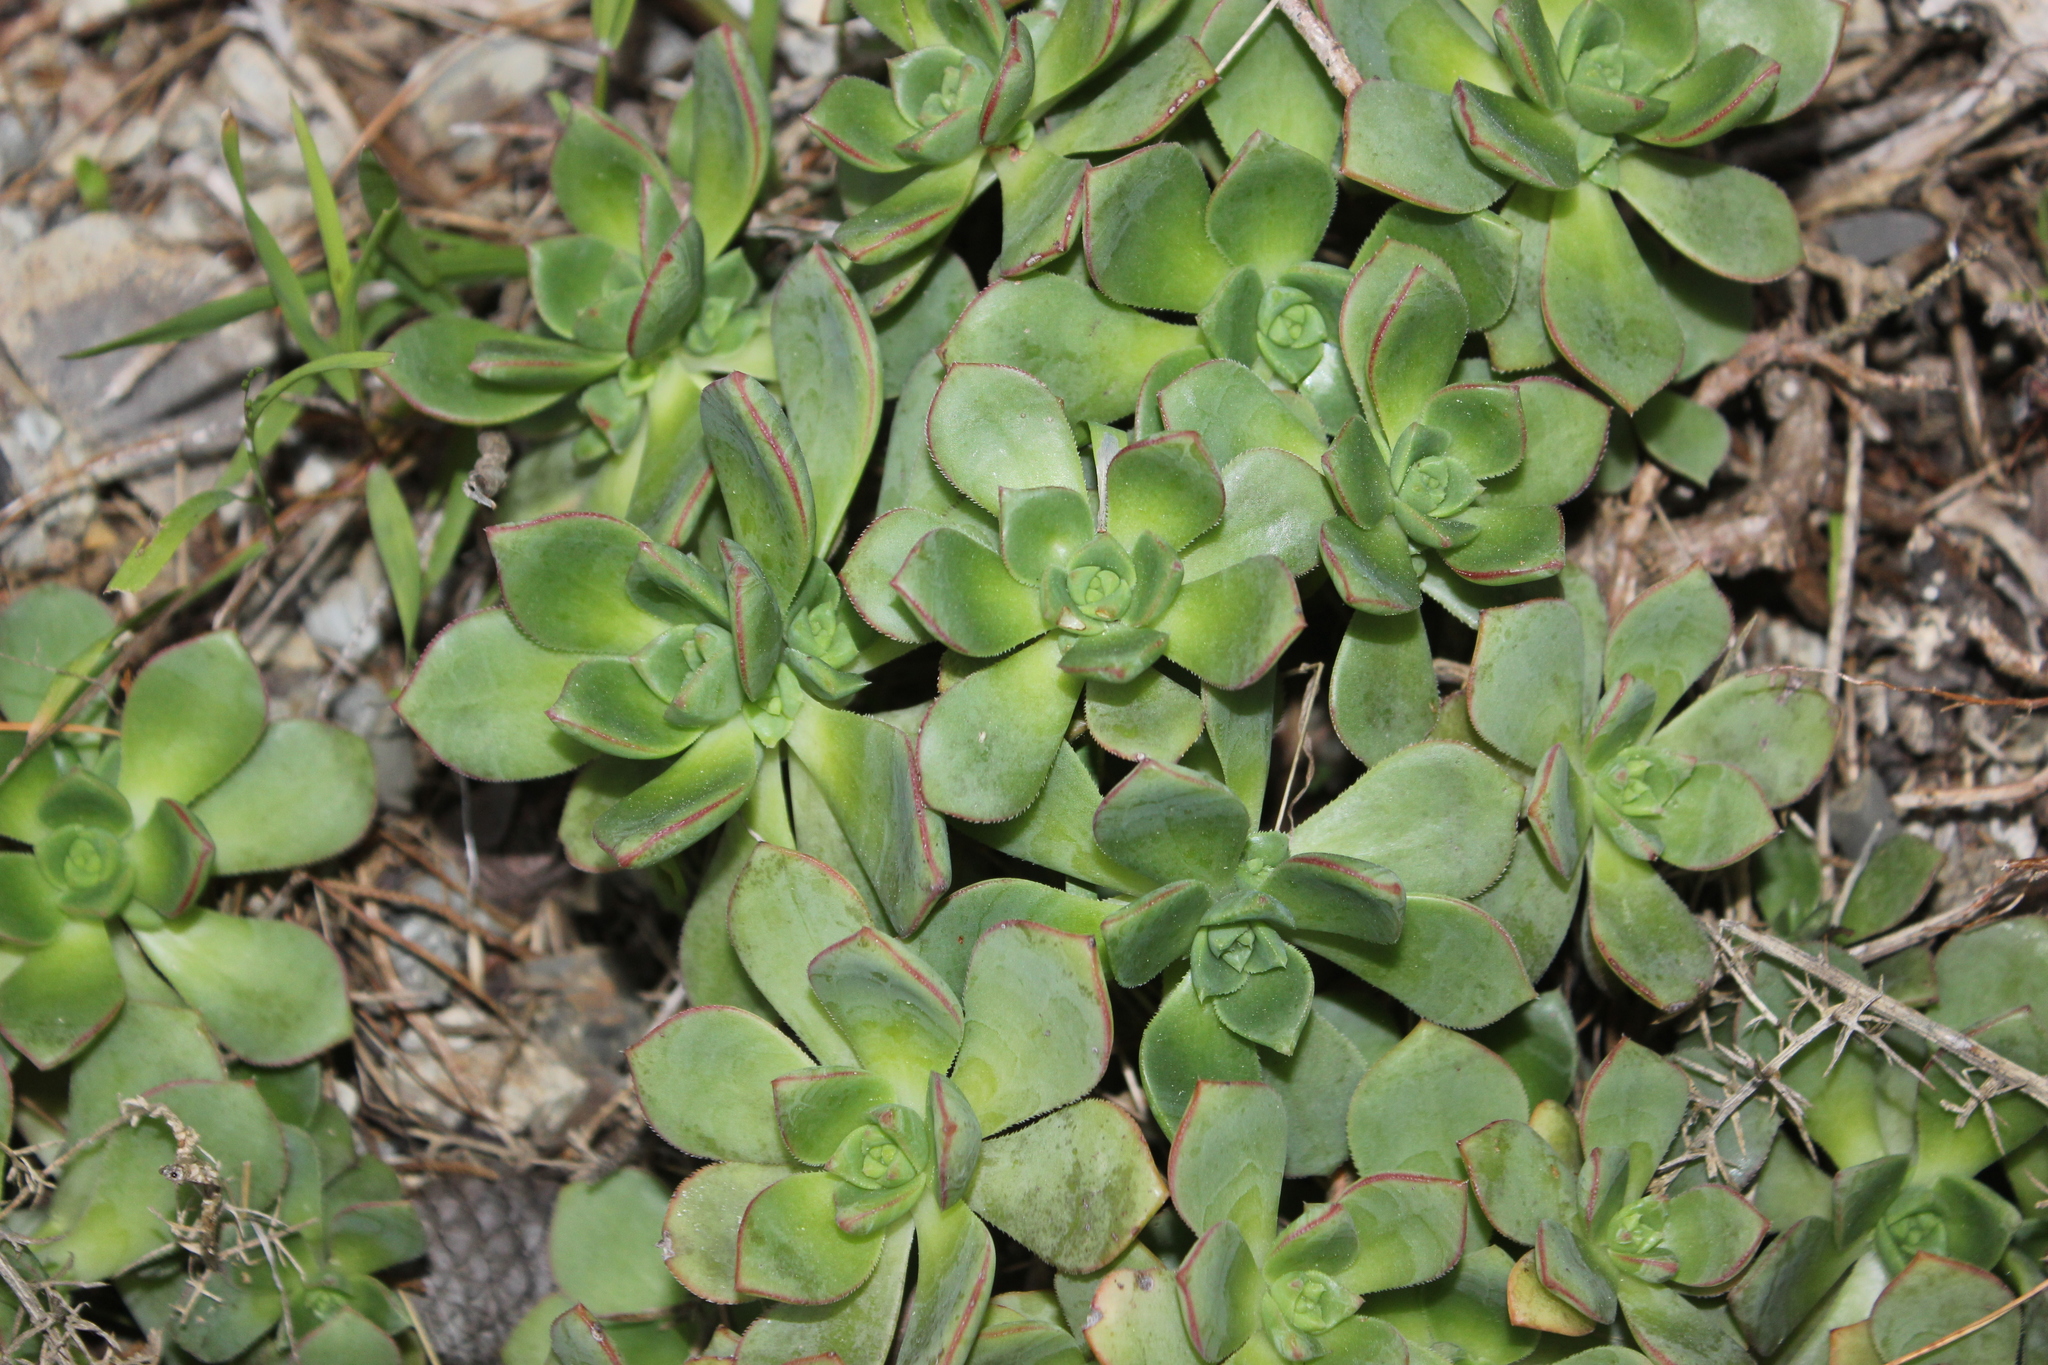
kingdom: Plantae
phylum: Tracheophyta
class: Magnoliopsida
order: Saxifragales
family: Crassulaceae
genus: Aeonium
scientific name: Aeonium haworthii
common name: Haworth's aeonium
